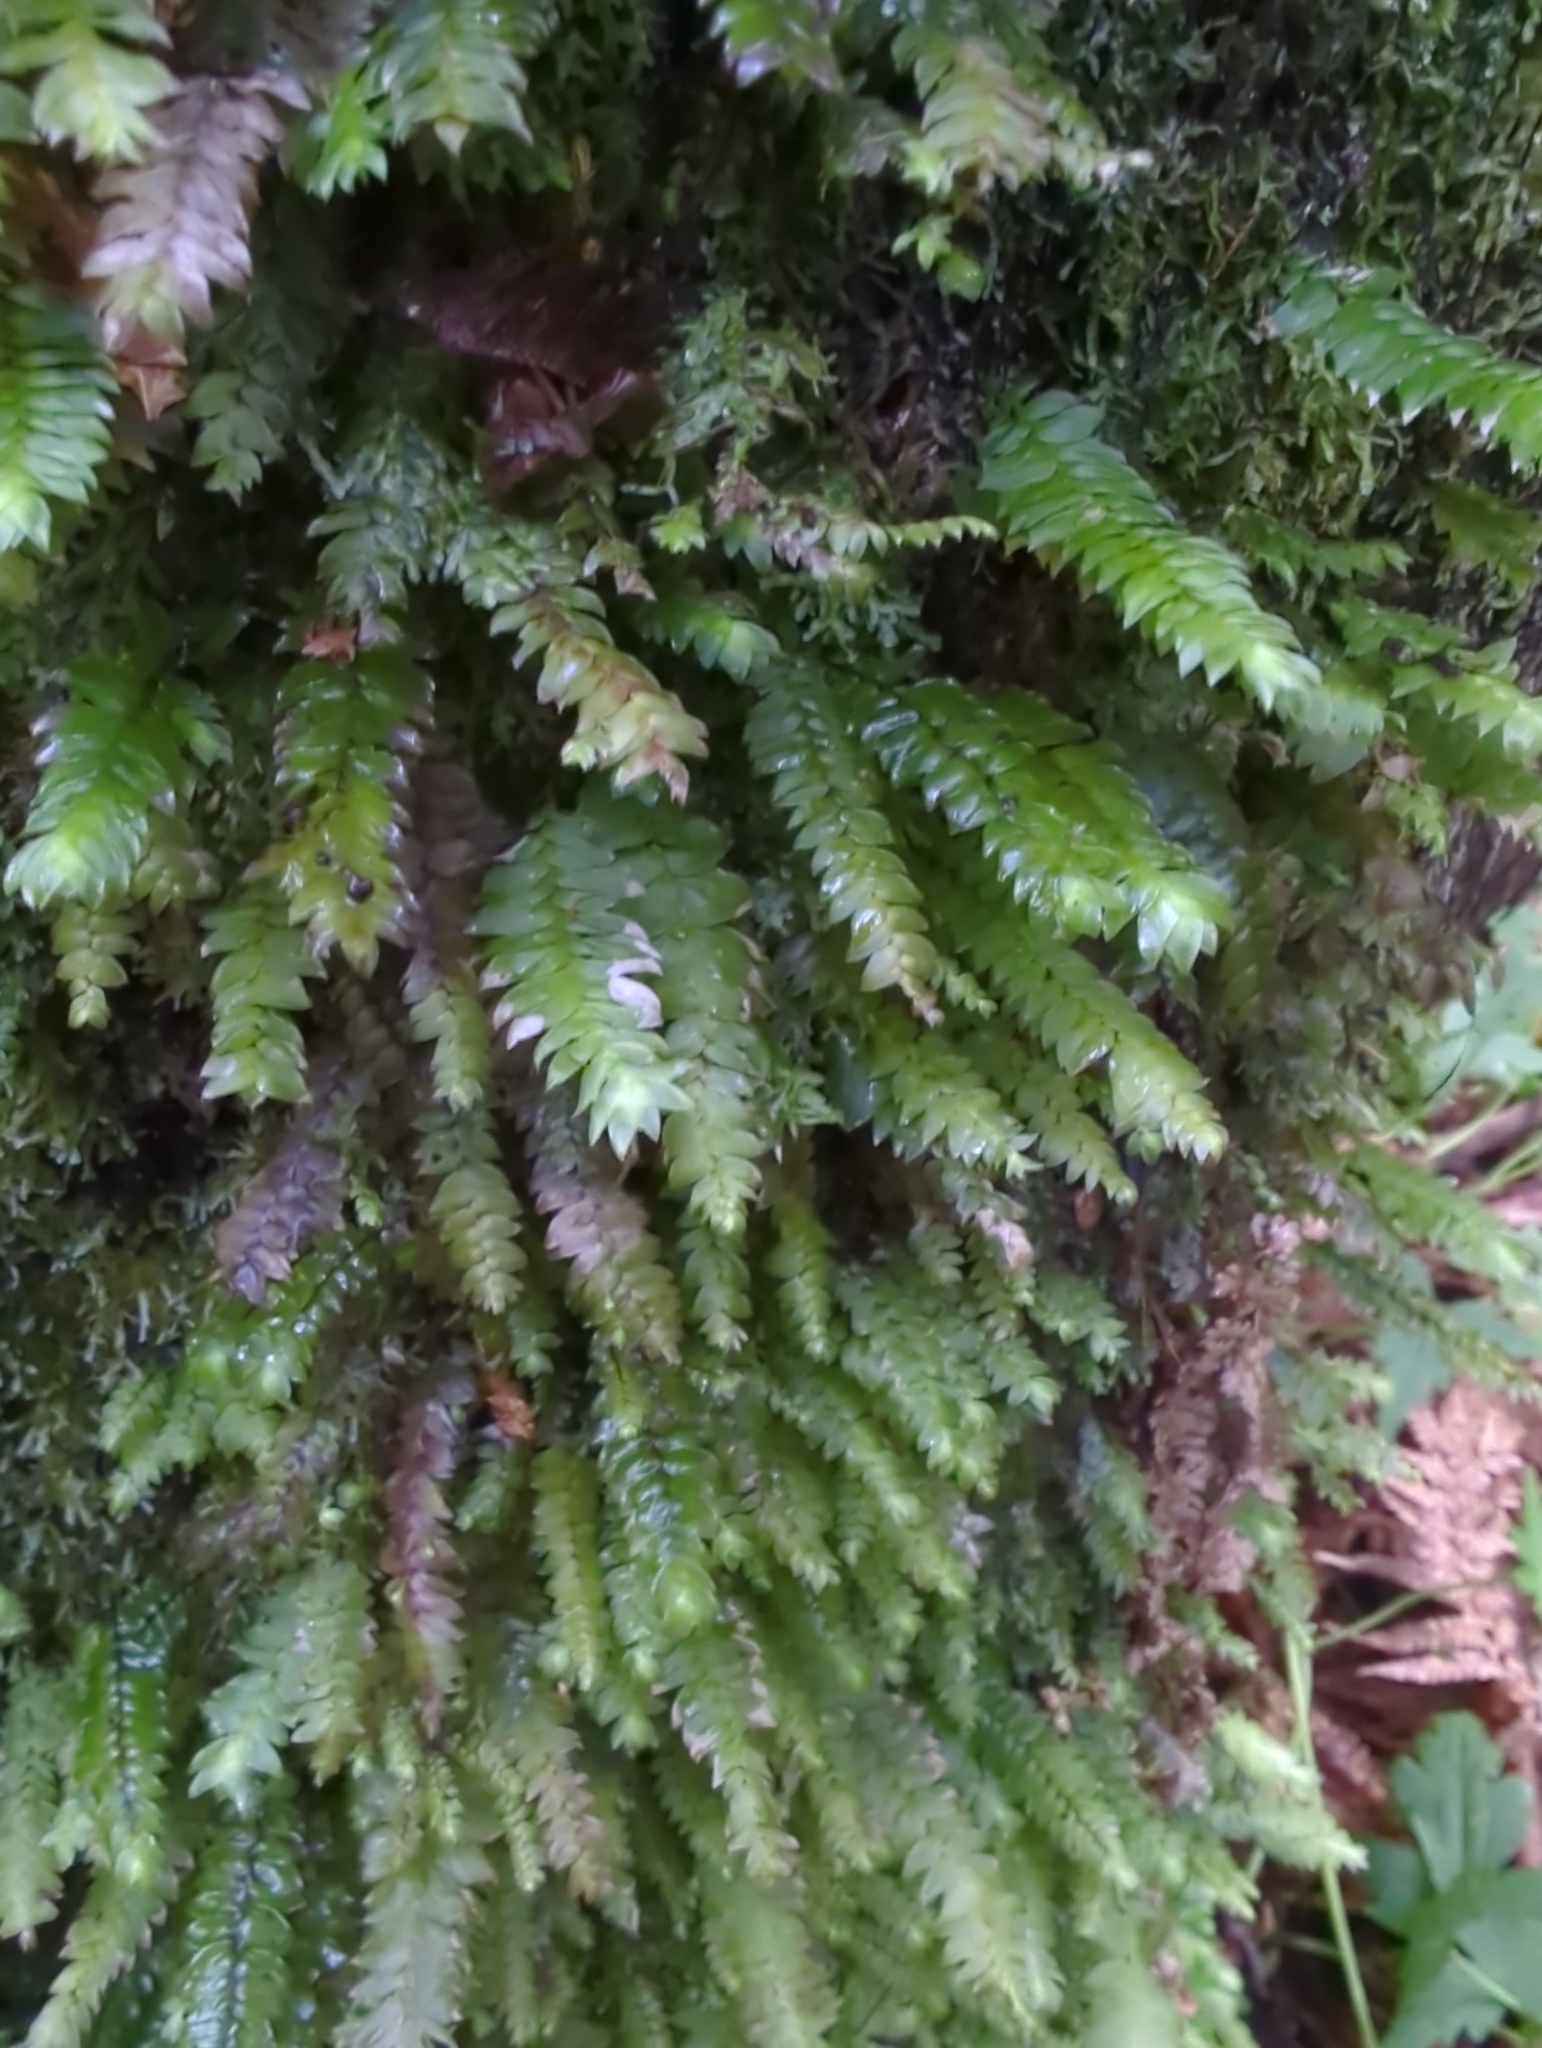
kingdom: Plantae
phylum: Bryophyta
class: Bryopsida
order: Hypopterygiales
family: Hypopterygiaceae
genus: Cyathophorum
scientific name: Cyathophorum bulbosum
